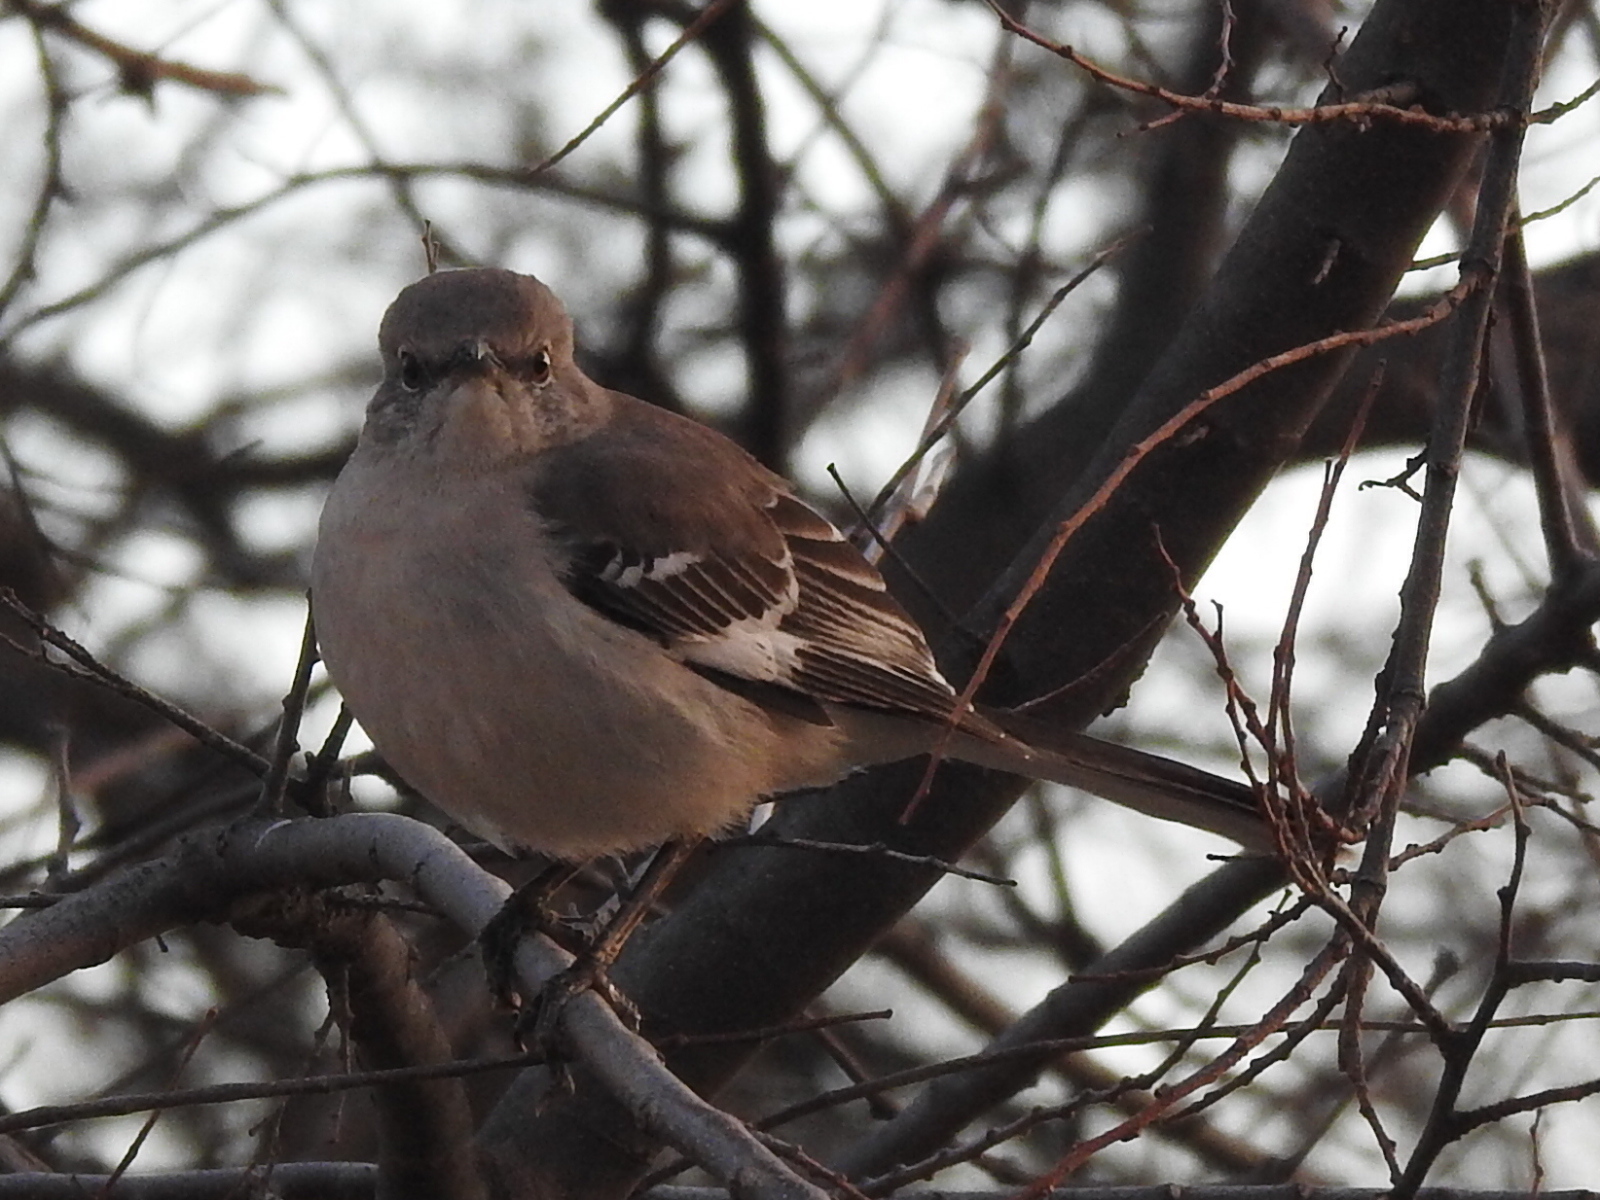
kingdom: Animalia
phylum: Chordata
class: Aves
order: Passeriformes
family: Mimidae
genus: Mimus
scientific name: Mimus polyglottos
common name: Northern mockingbird
